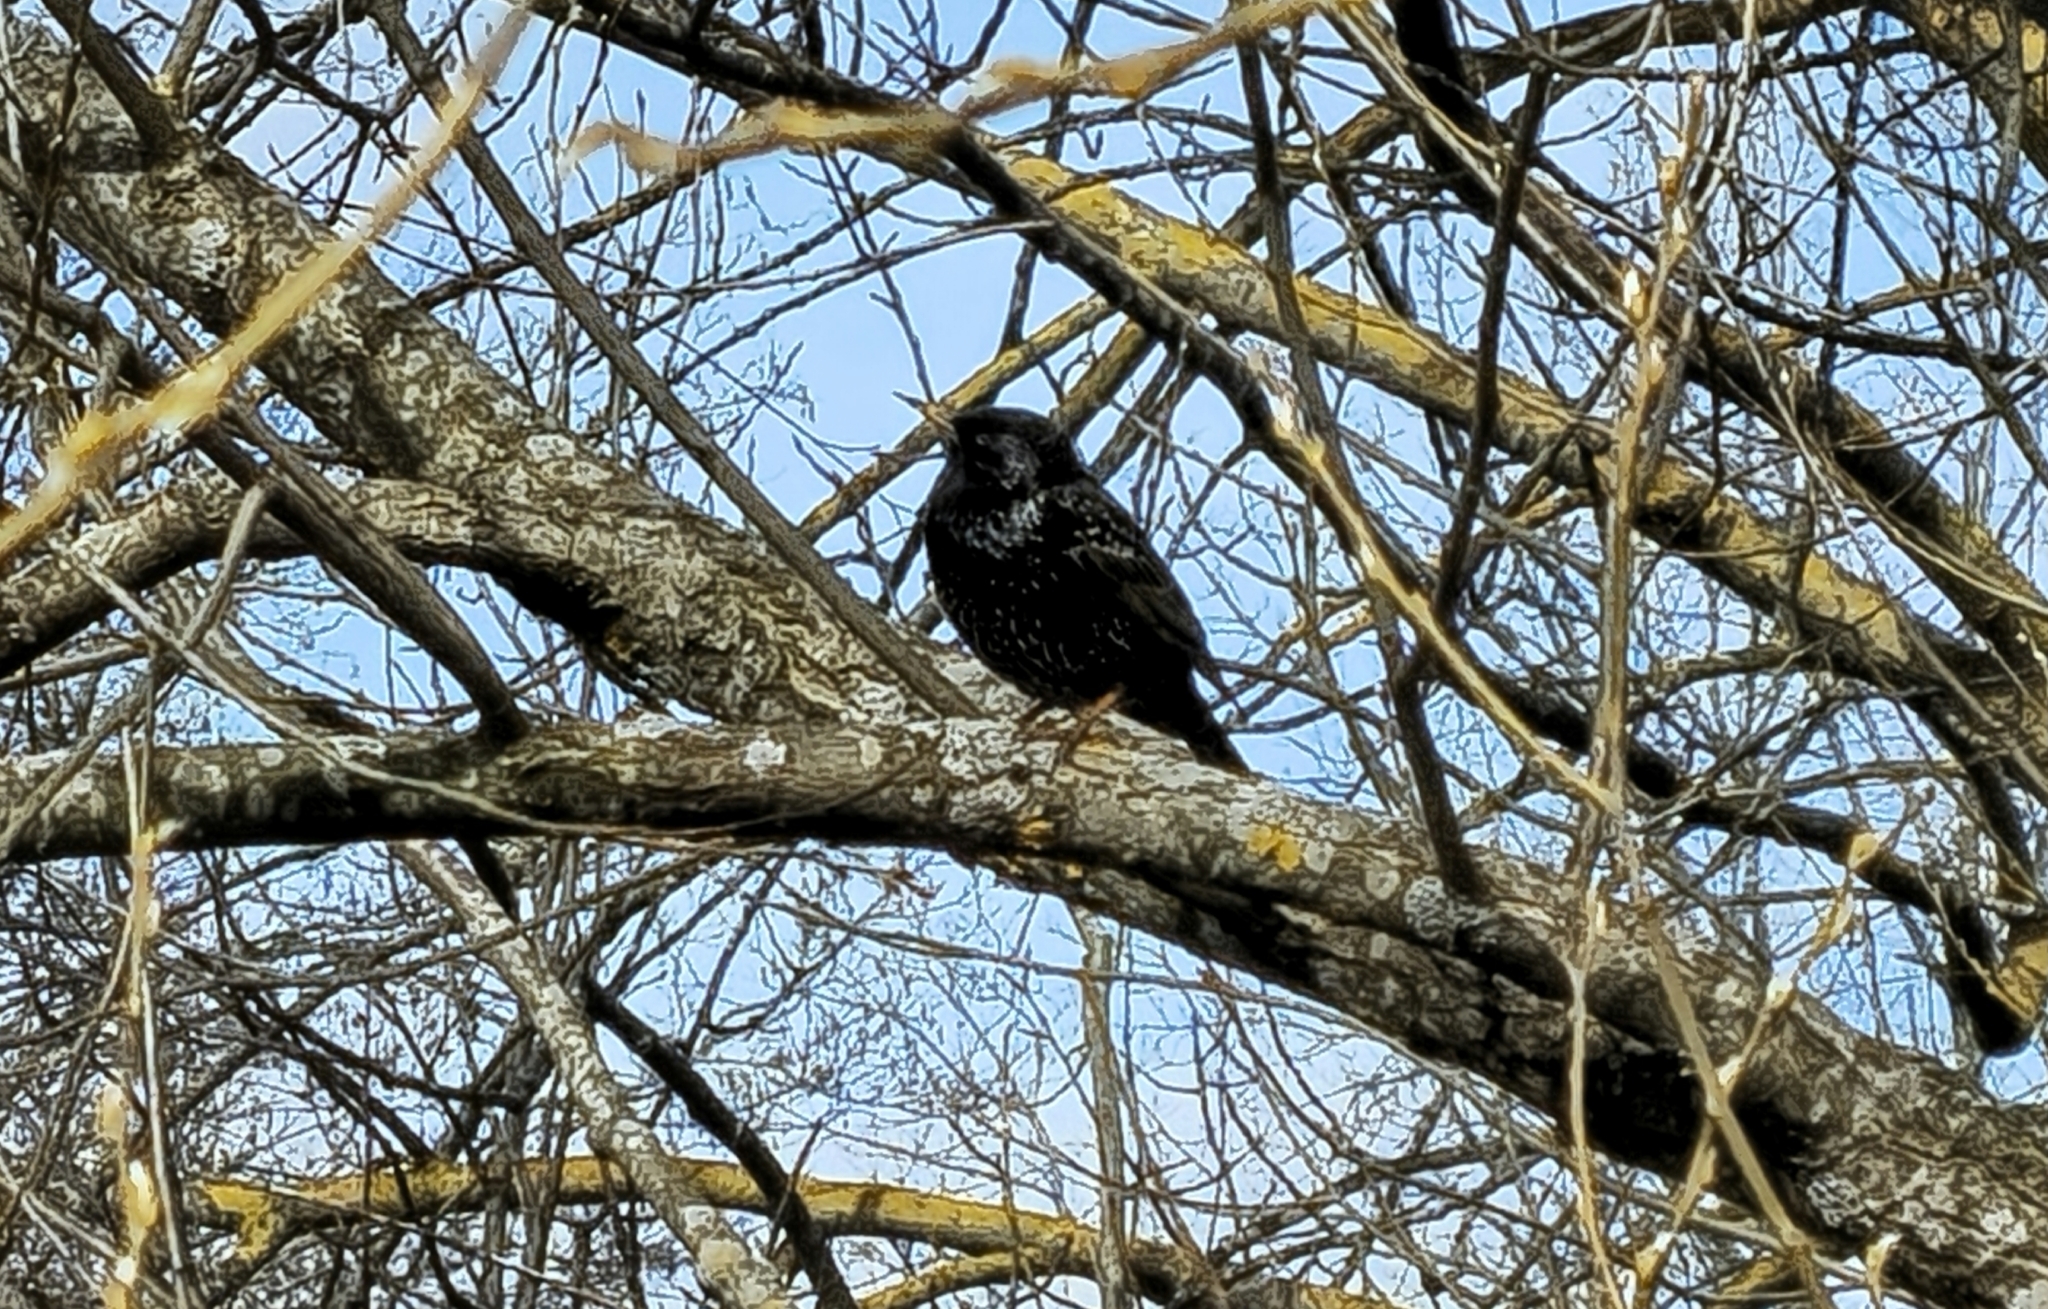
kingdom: Animalia
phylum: Chordata
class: Aves
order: Passeriformes
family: Sturnidae
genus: Sturnus
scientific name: Sturnus vulgaris
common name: Common starling
